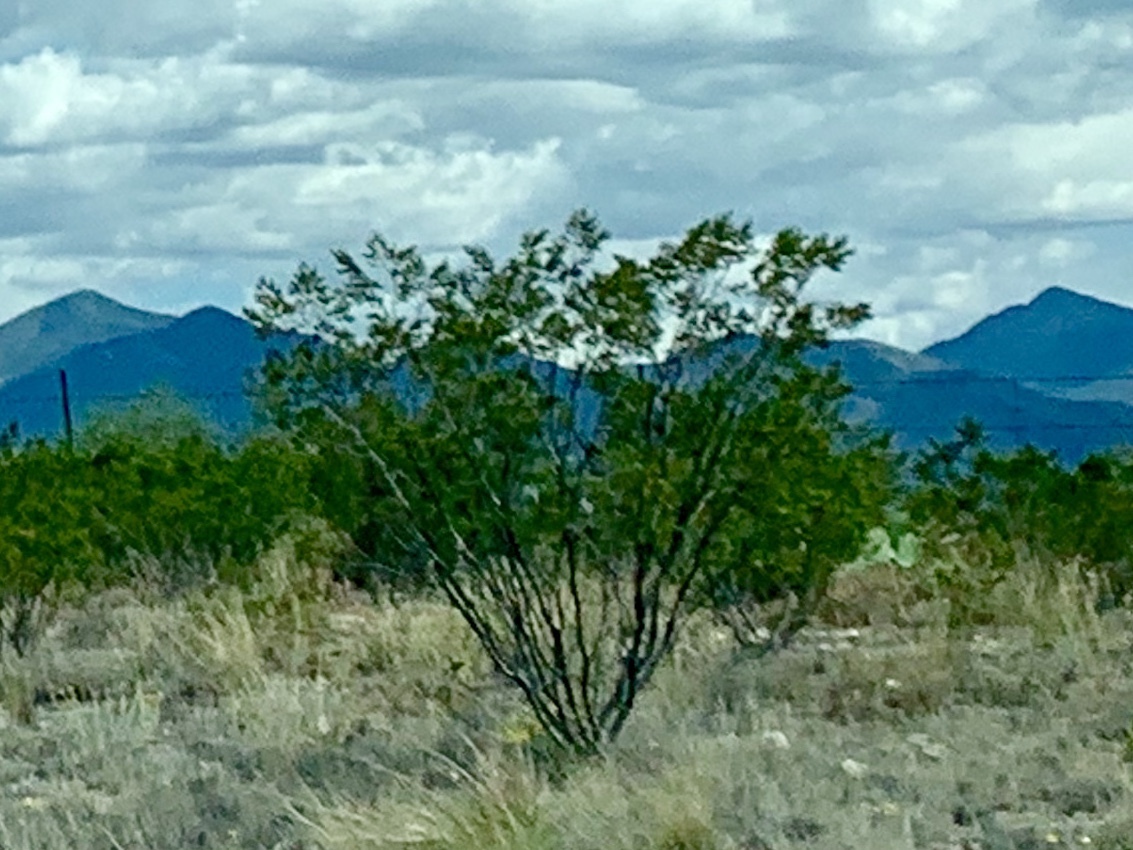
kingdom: Plantae
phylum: Tracheophyta
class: Magnoliopsida
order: Zygophyllales
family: Zygophyllaceae
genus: Larrea
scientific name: Larrea tridentata
